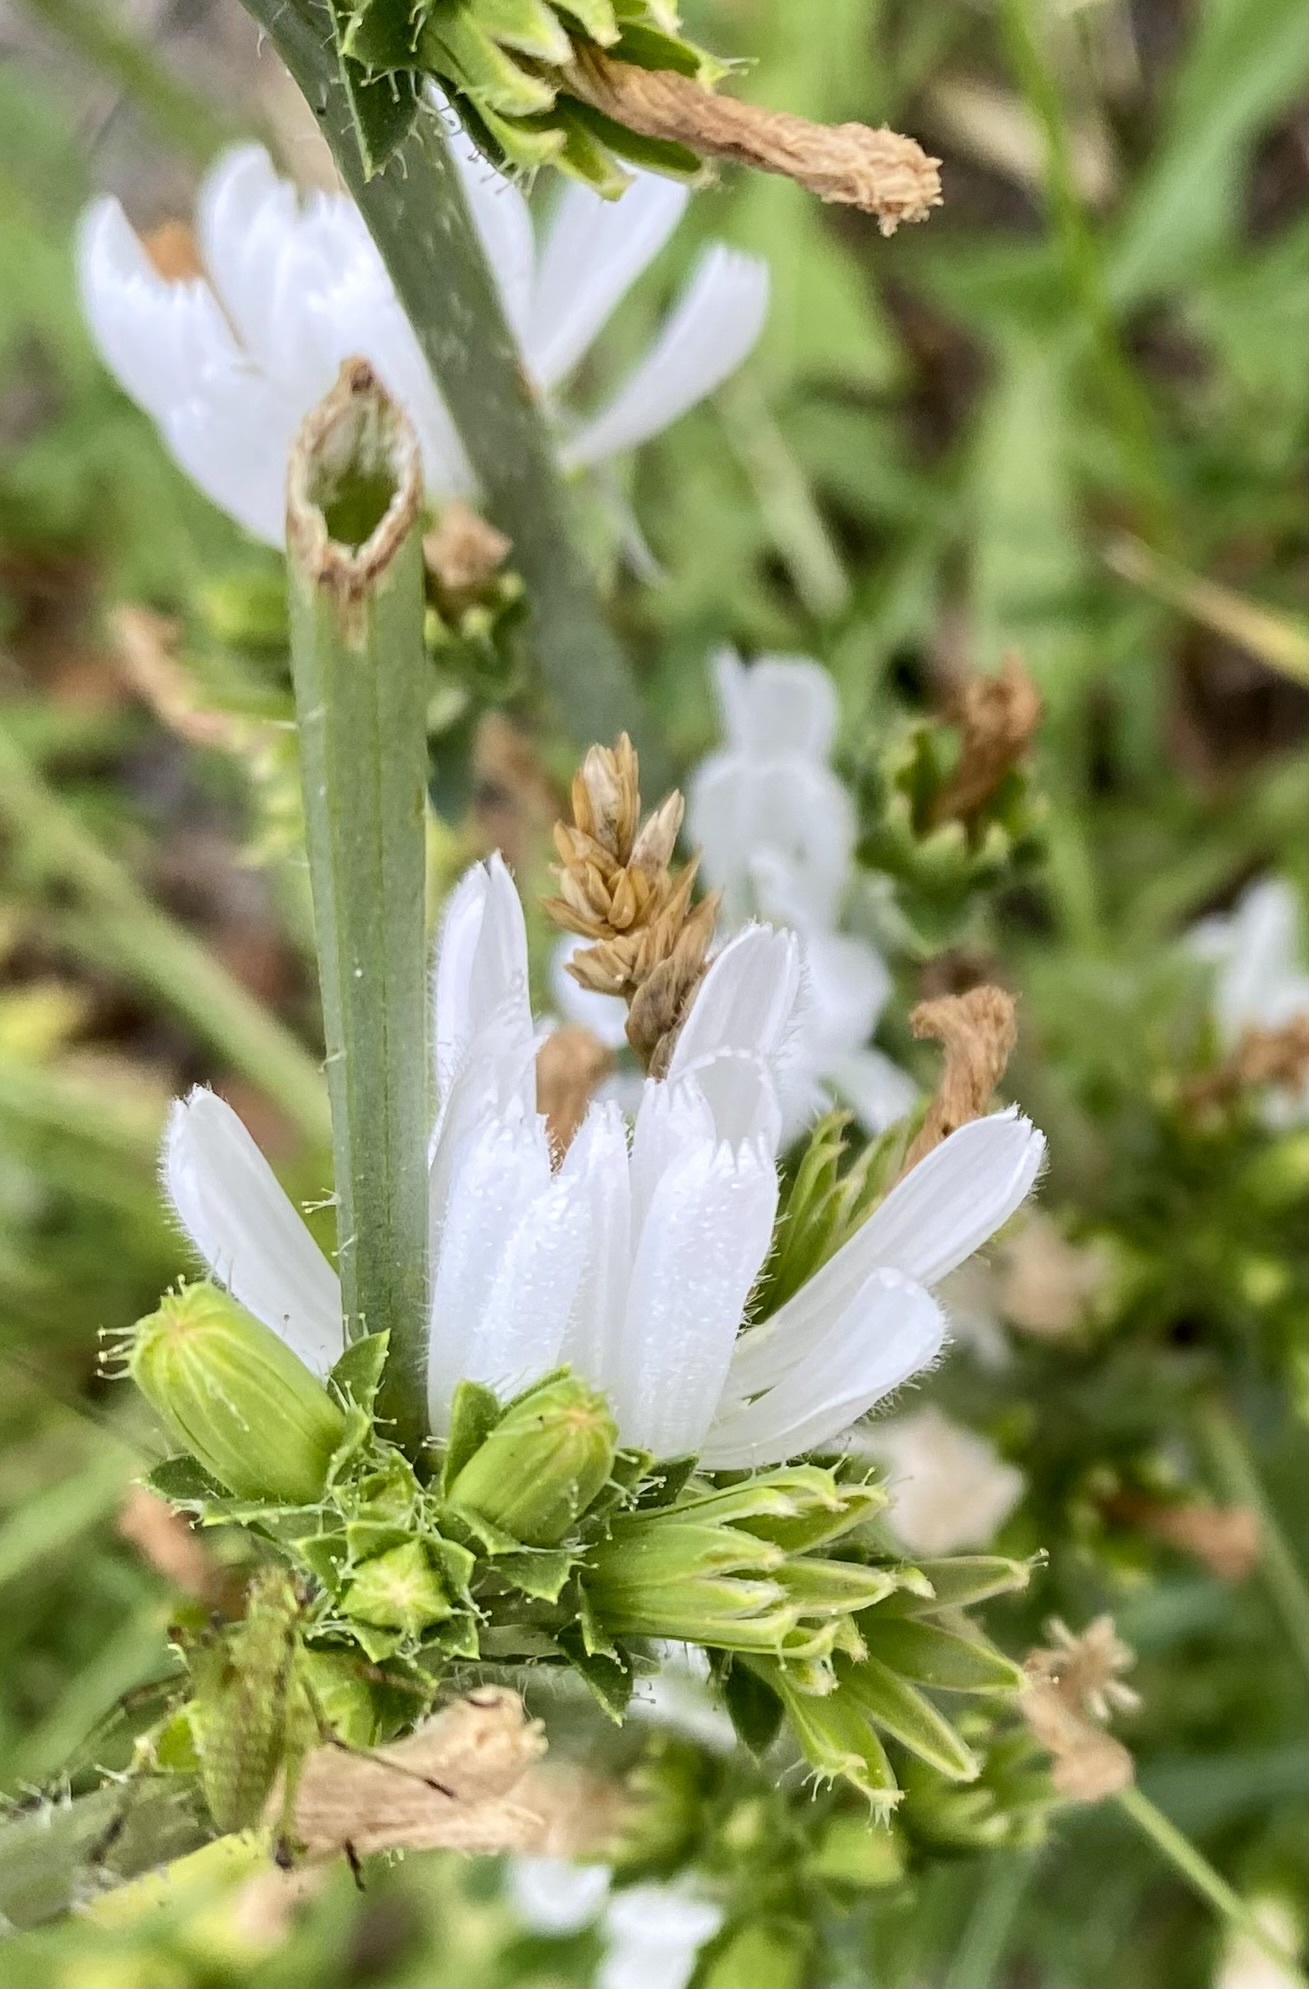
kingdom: Plantae
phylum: Tracheophyta
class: Magnoliopsida
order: Asterales
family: Asteraceae
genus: Cichorium
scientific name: Cichorium intybus
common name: Chicory
